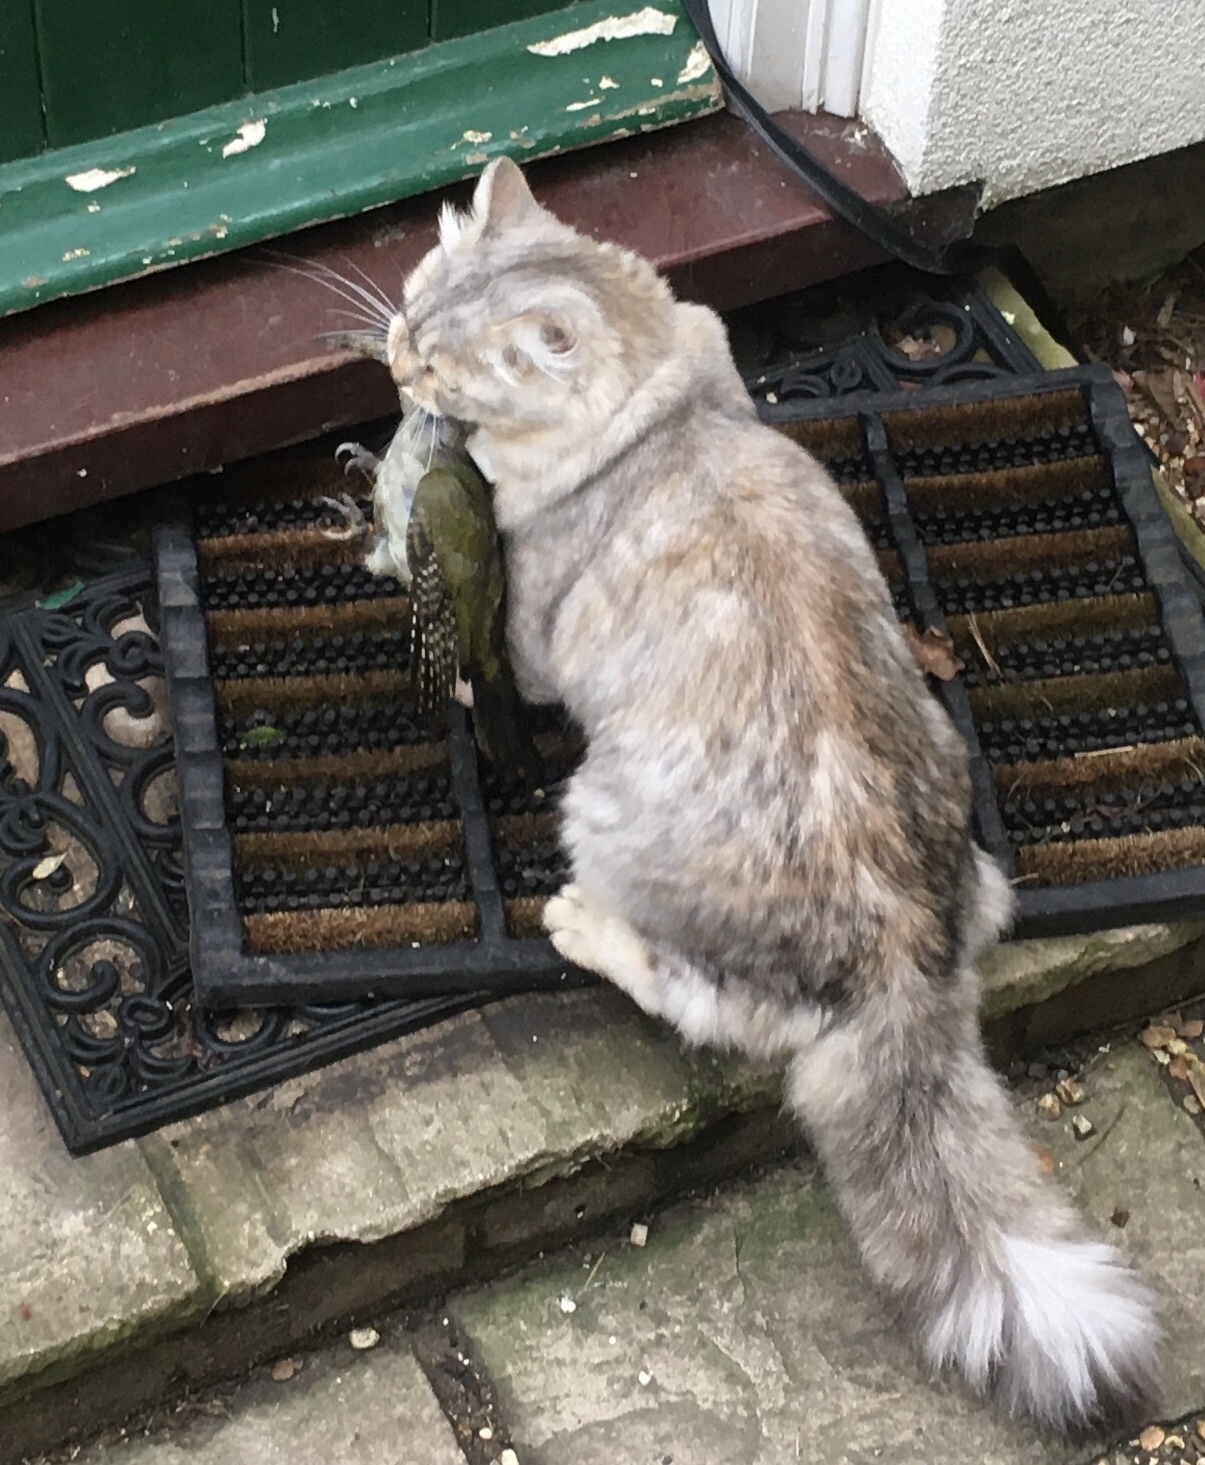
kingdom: Animalia
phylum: Chordata
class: Aves
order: Piciformes
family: Picidae
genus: Picus
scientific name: Picus viridis
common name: European green woodpecker
